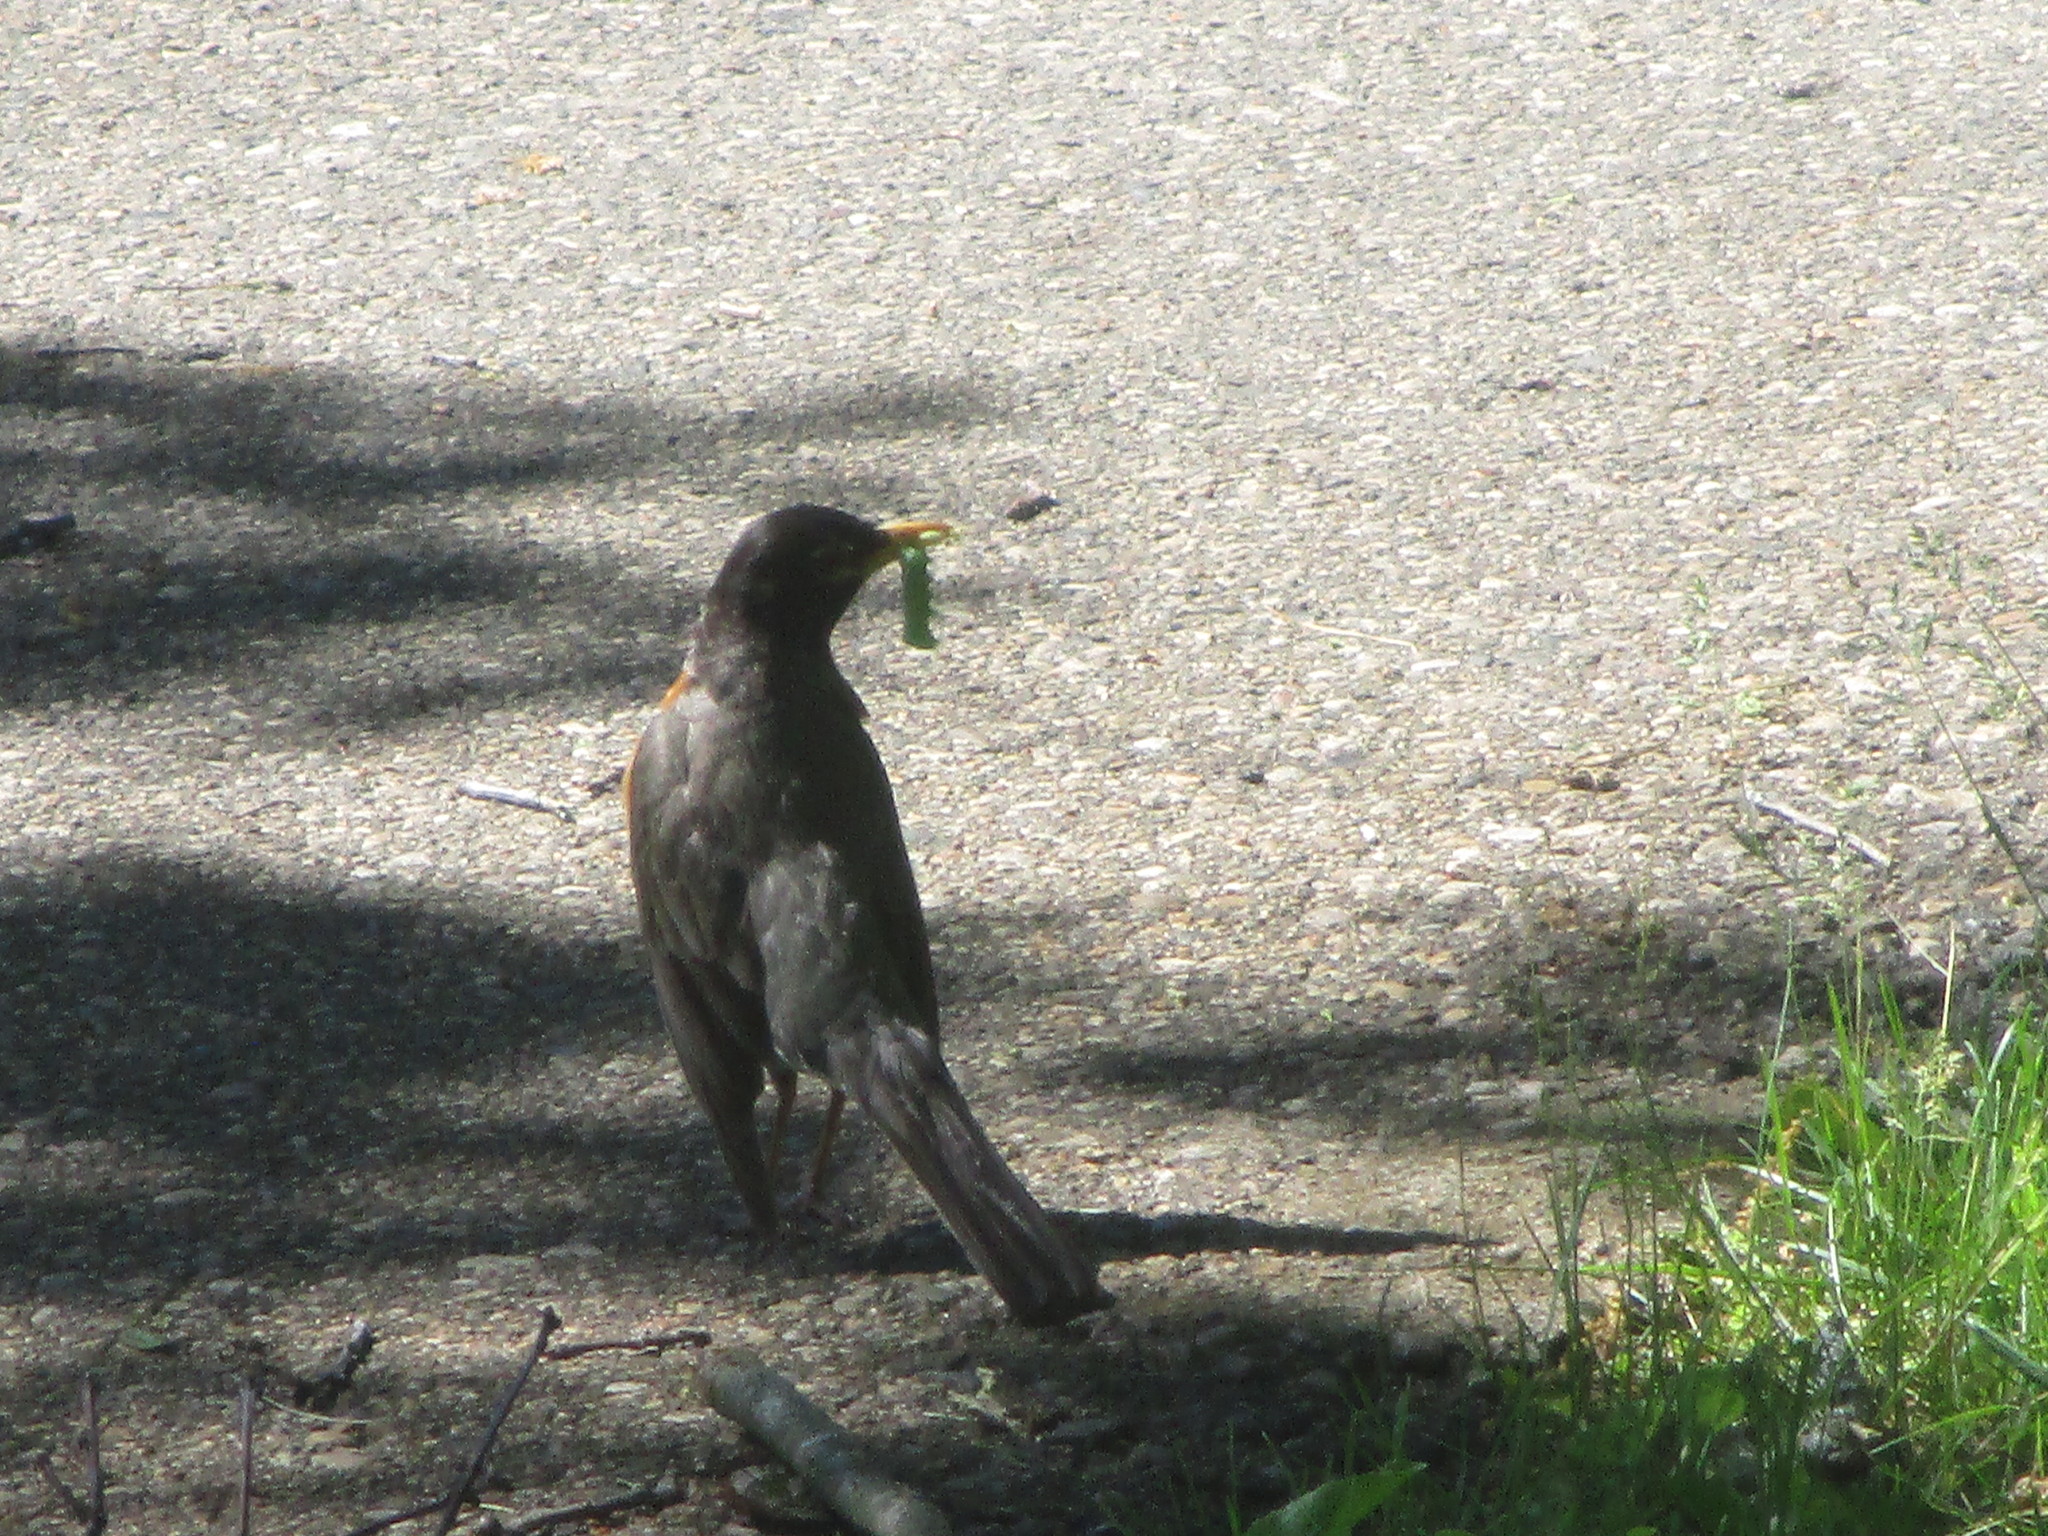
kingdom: Animalia
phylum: Chordata
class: Aves
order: Passeriformes
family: Turdidae
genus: Turdus
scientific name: Turdus migratorius
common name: American robin
